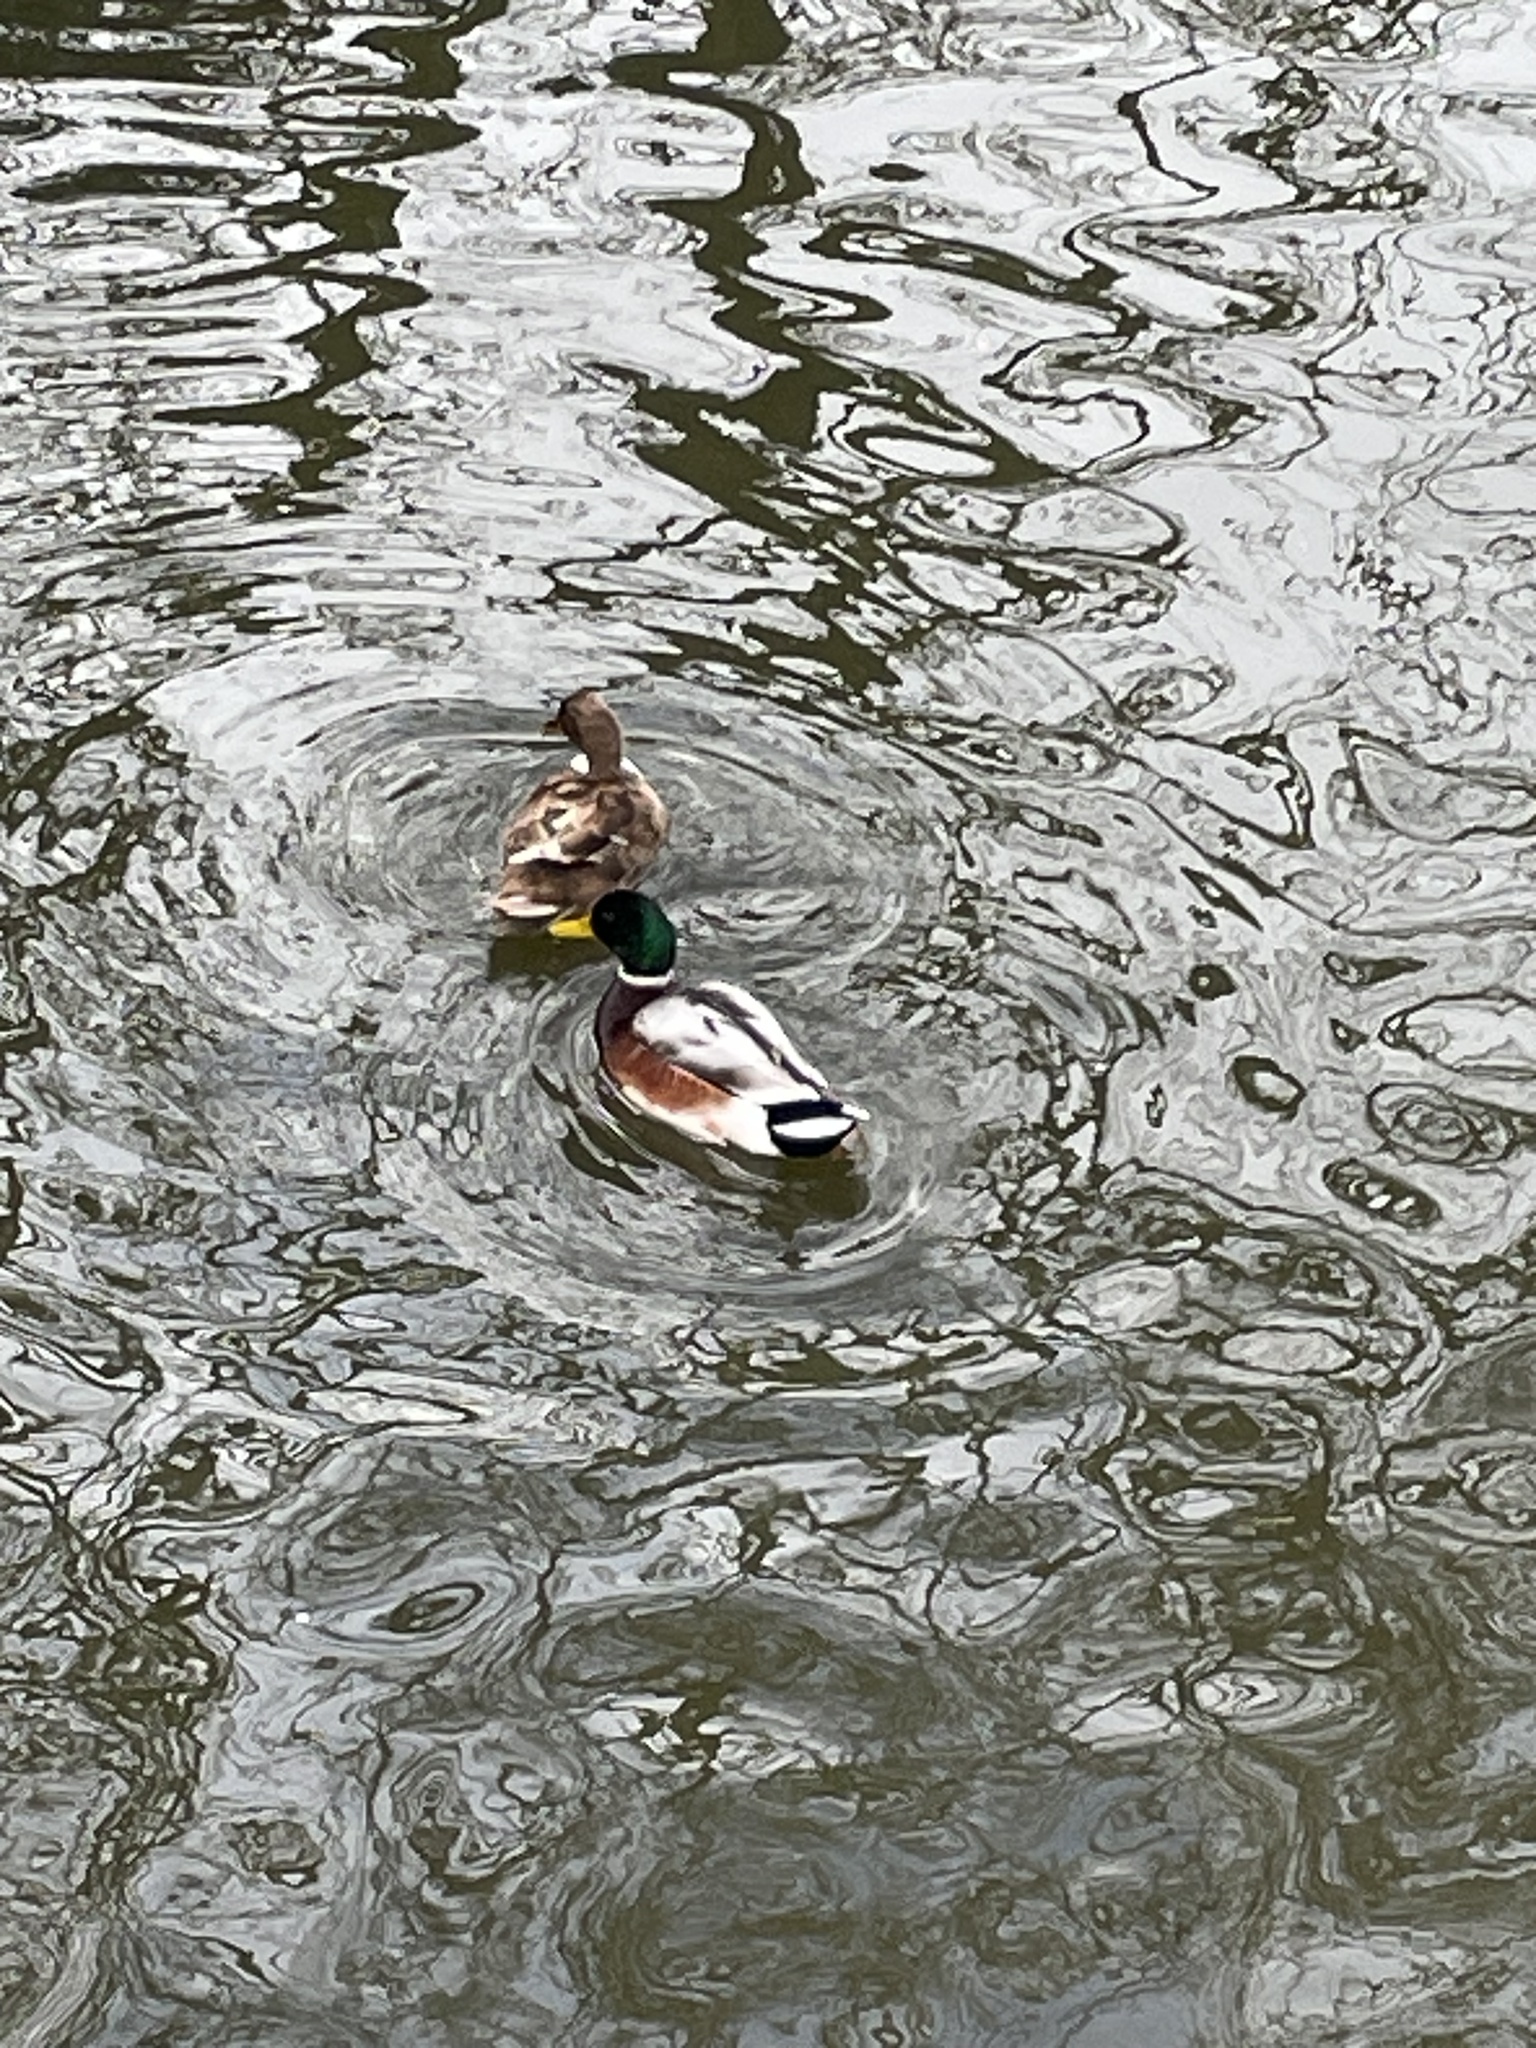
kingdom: Animalia
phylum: Chordata
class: Aves
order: Anseriformes
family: Anatidae
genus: Anas
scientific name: Anas platyrhynchos
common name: Mallard
